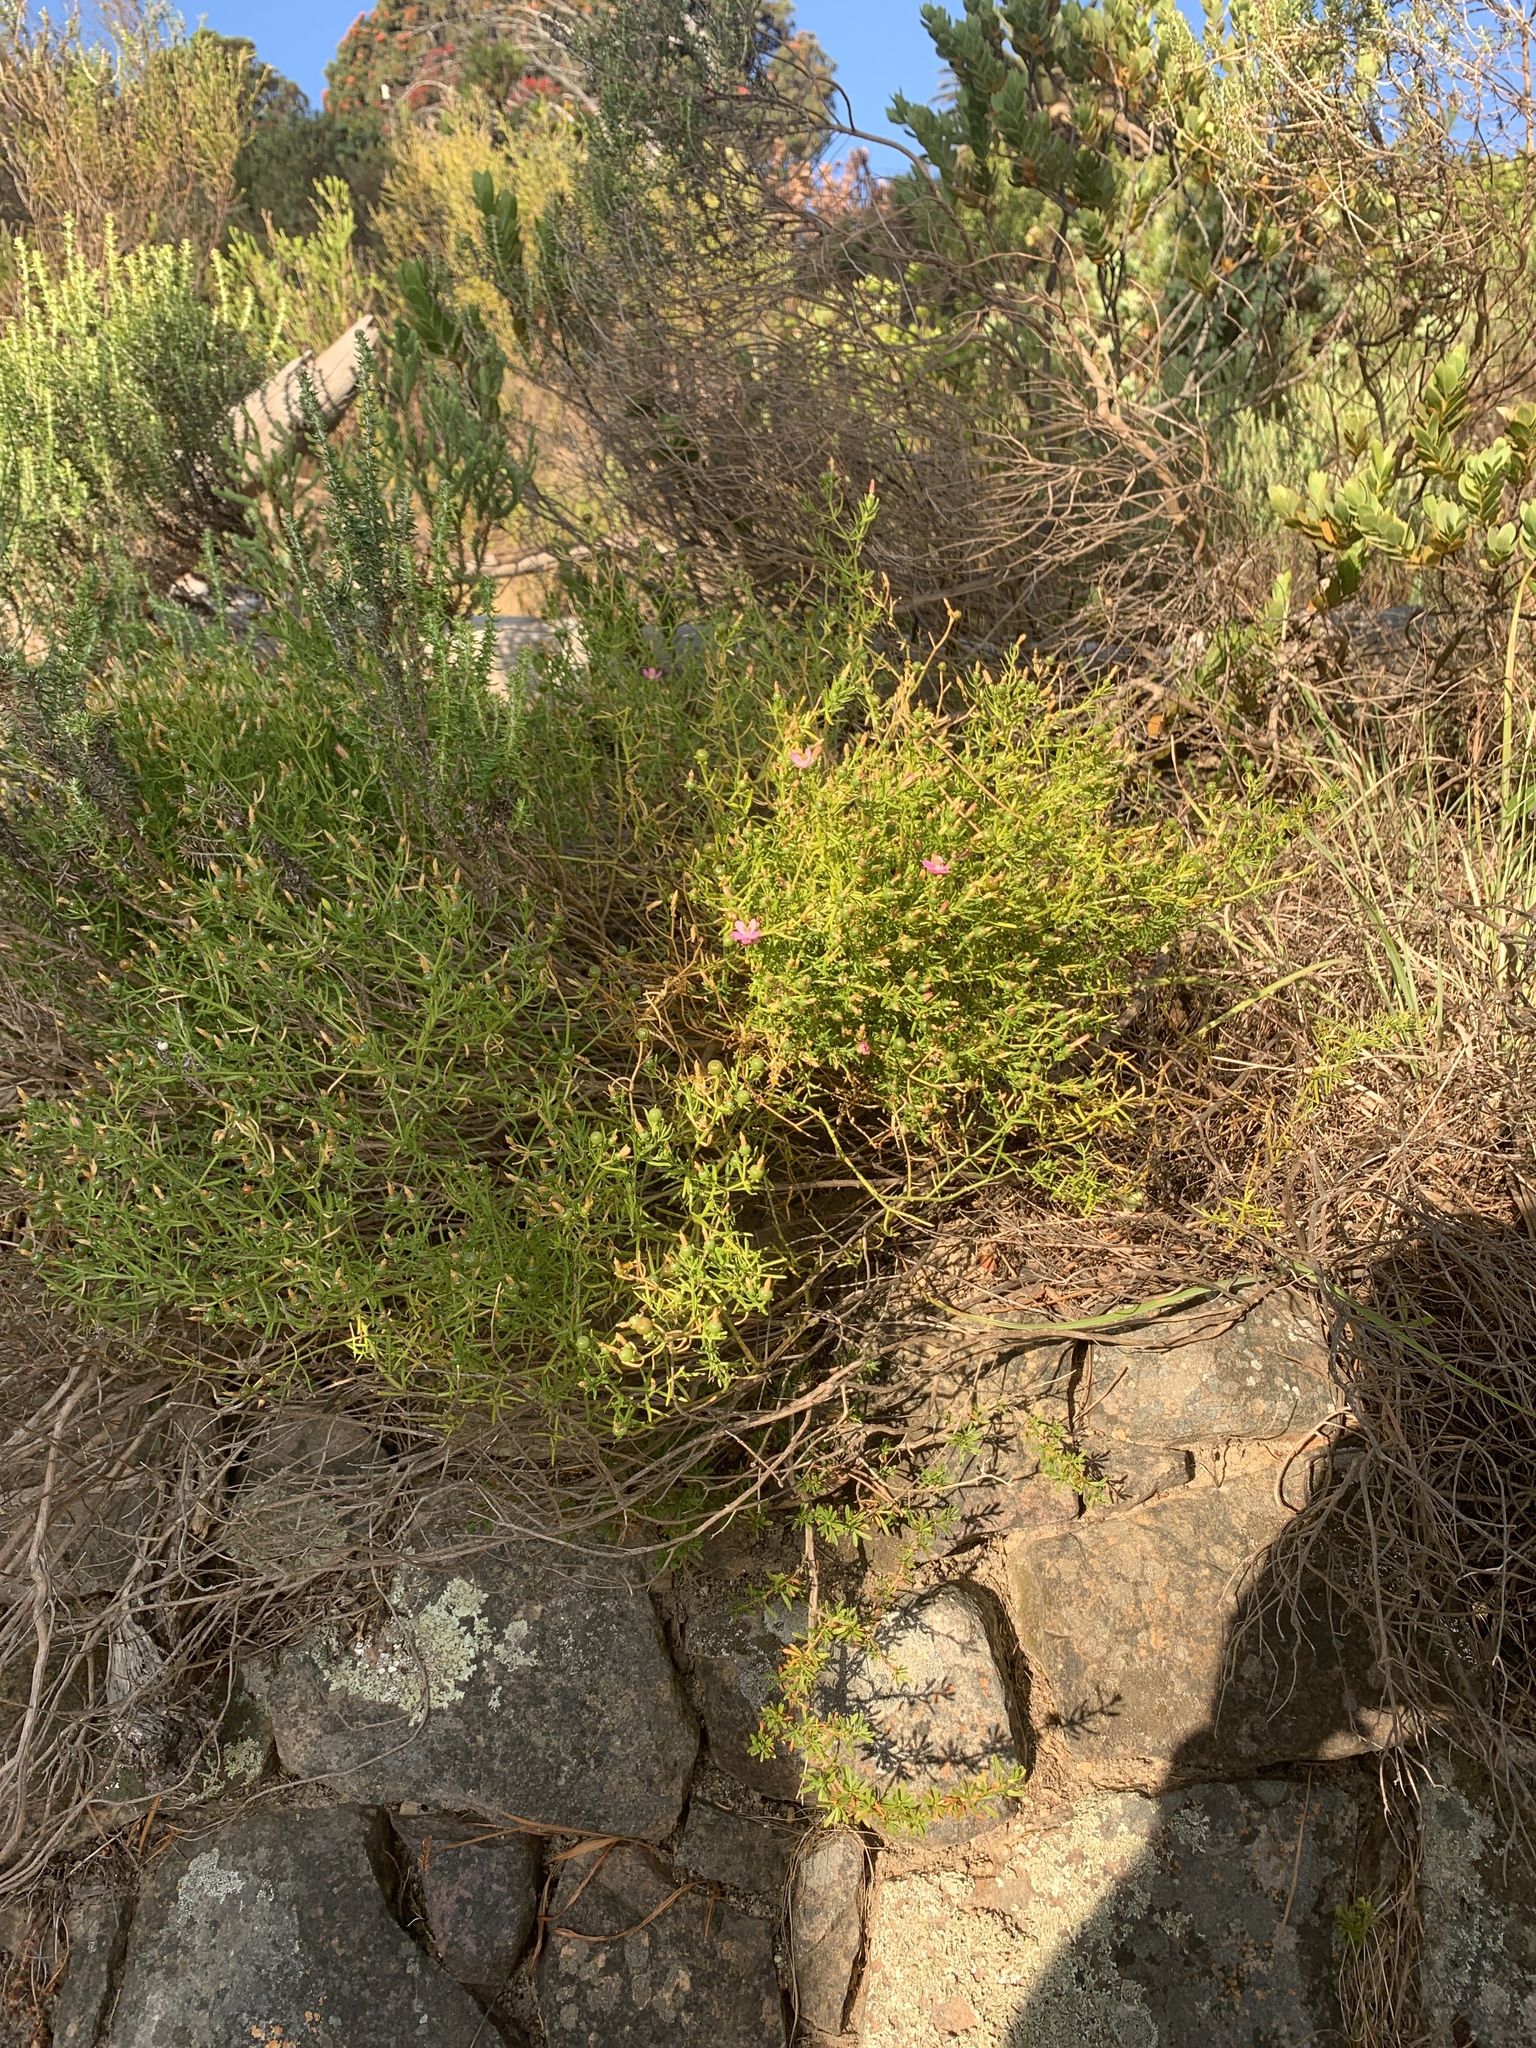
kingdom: Plantae
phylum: Tracheophyta
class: Magnoliopsida
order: Gentianales
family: Gentianaceae
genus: Chironia
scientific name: Chironia baccifera
